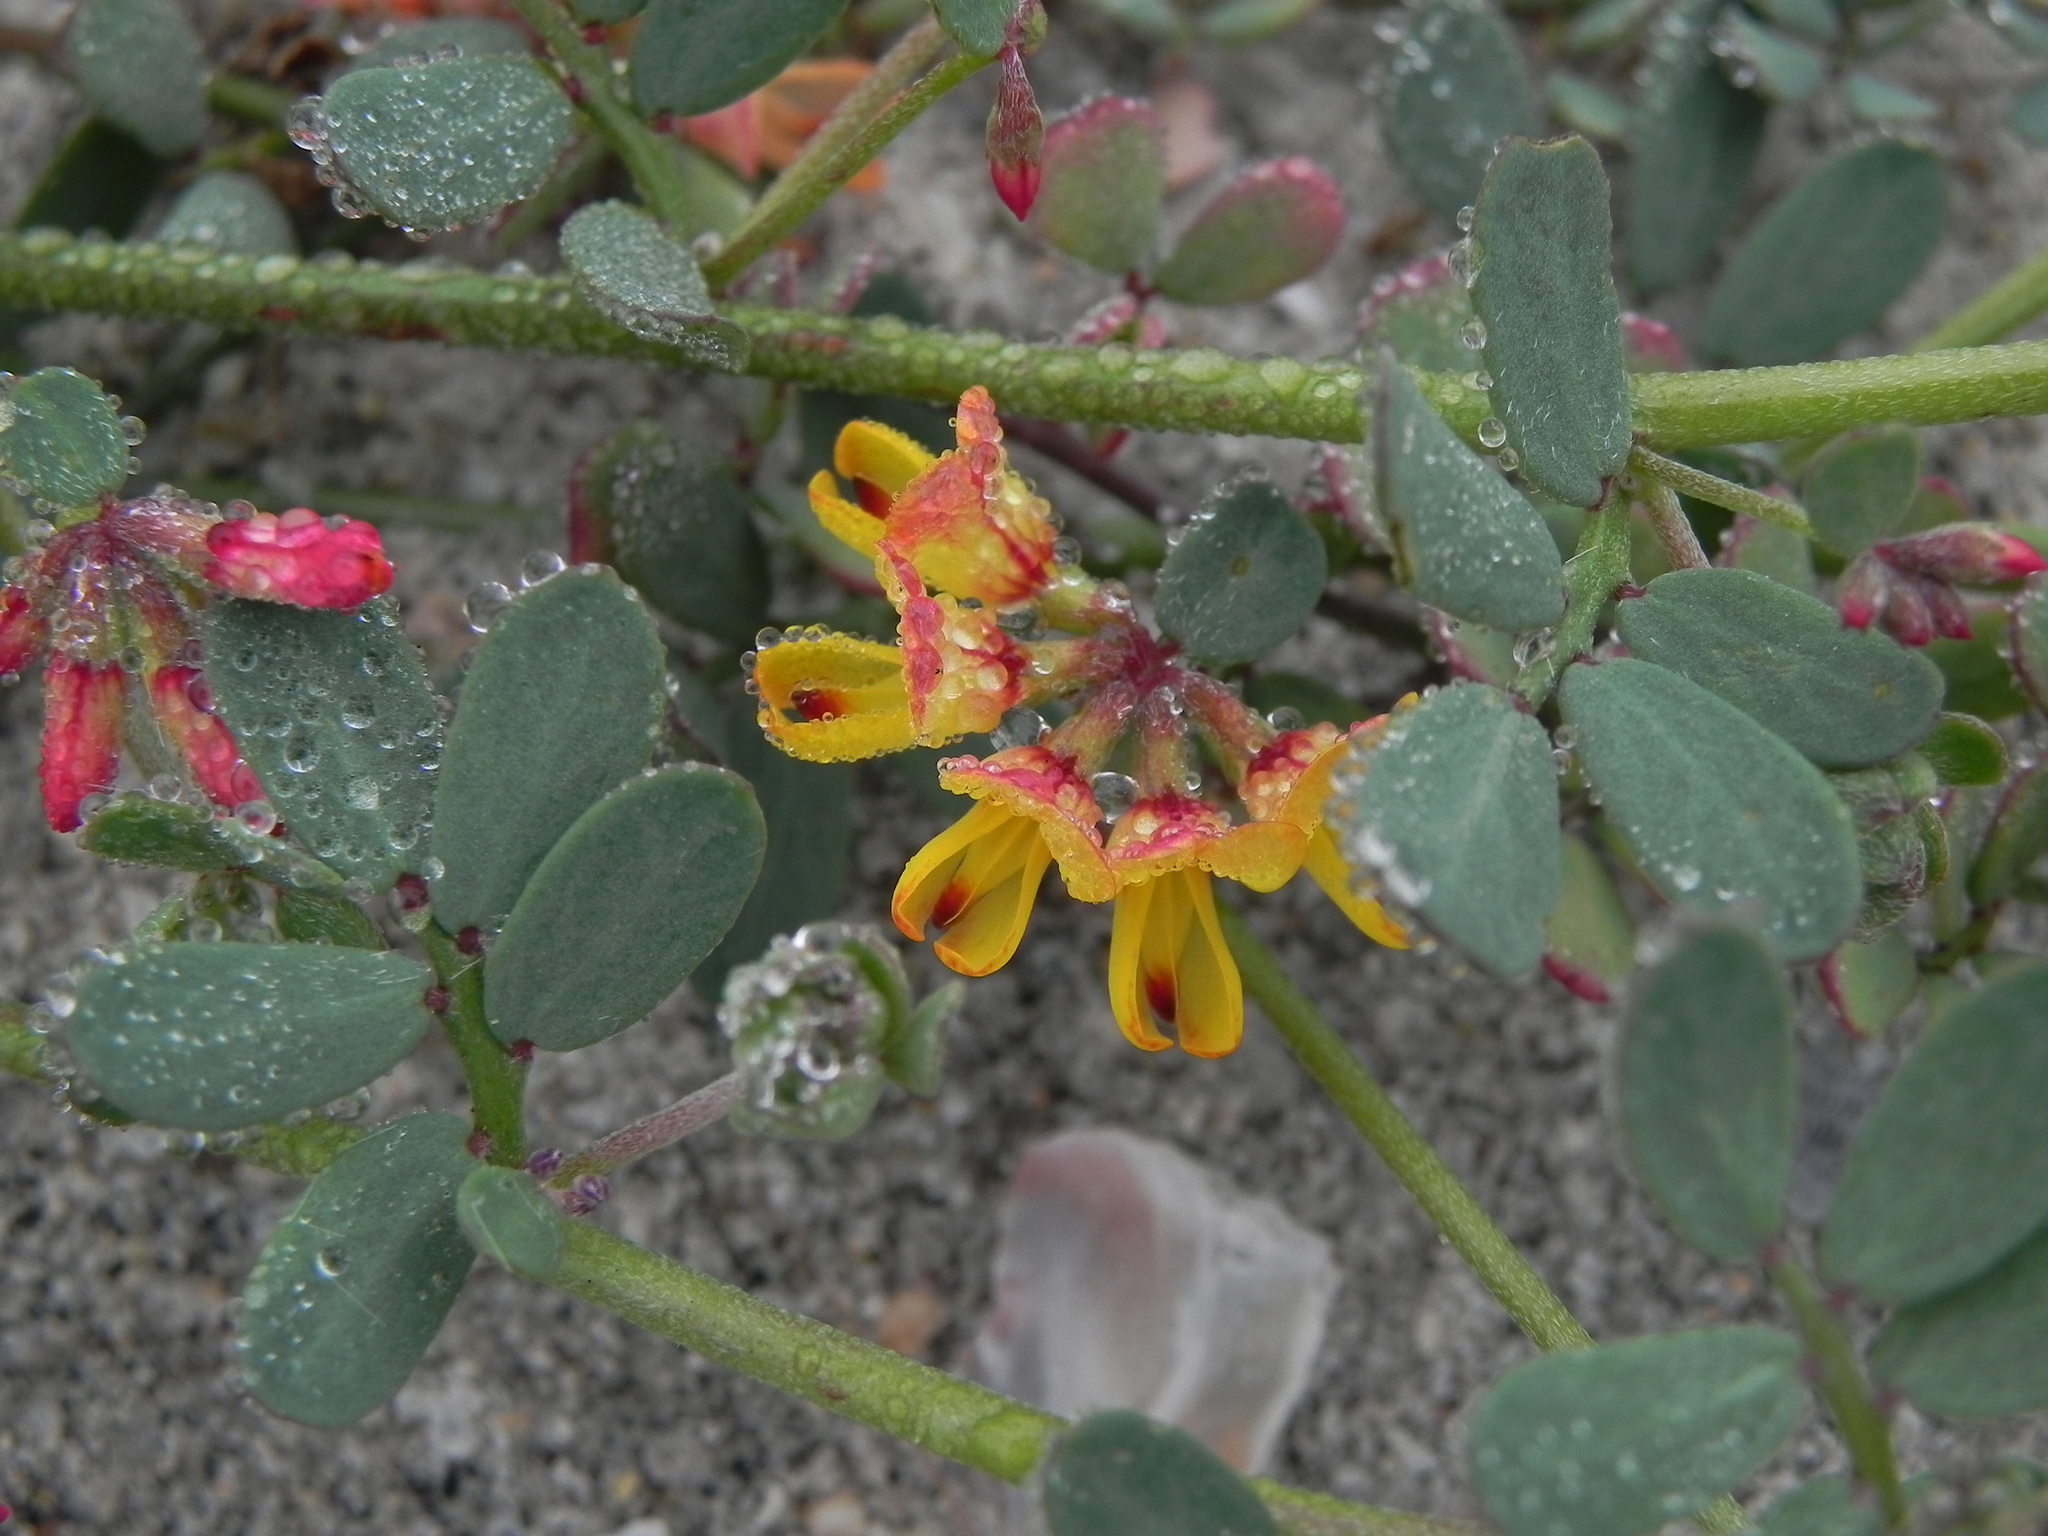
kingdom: Plantae
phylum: Tracheophyta
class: Magnoliopsida
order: Fabales
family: Fabaceae
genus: Acmispon
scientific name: Acmispon prostratus
